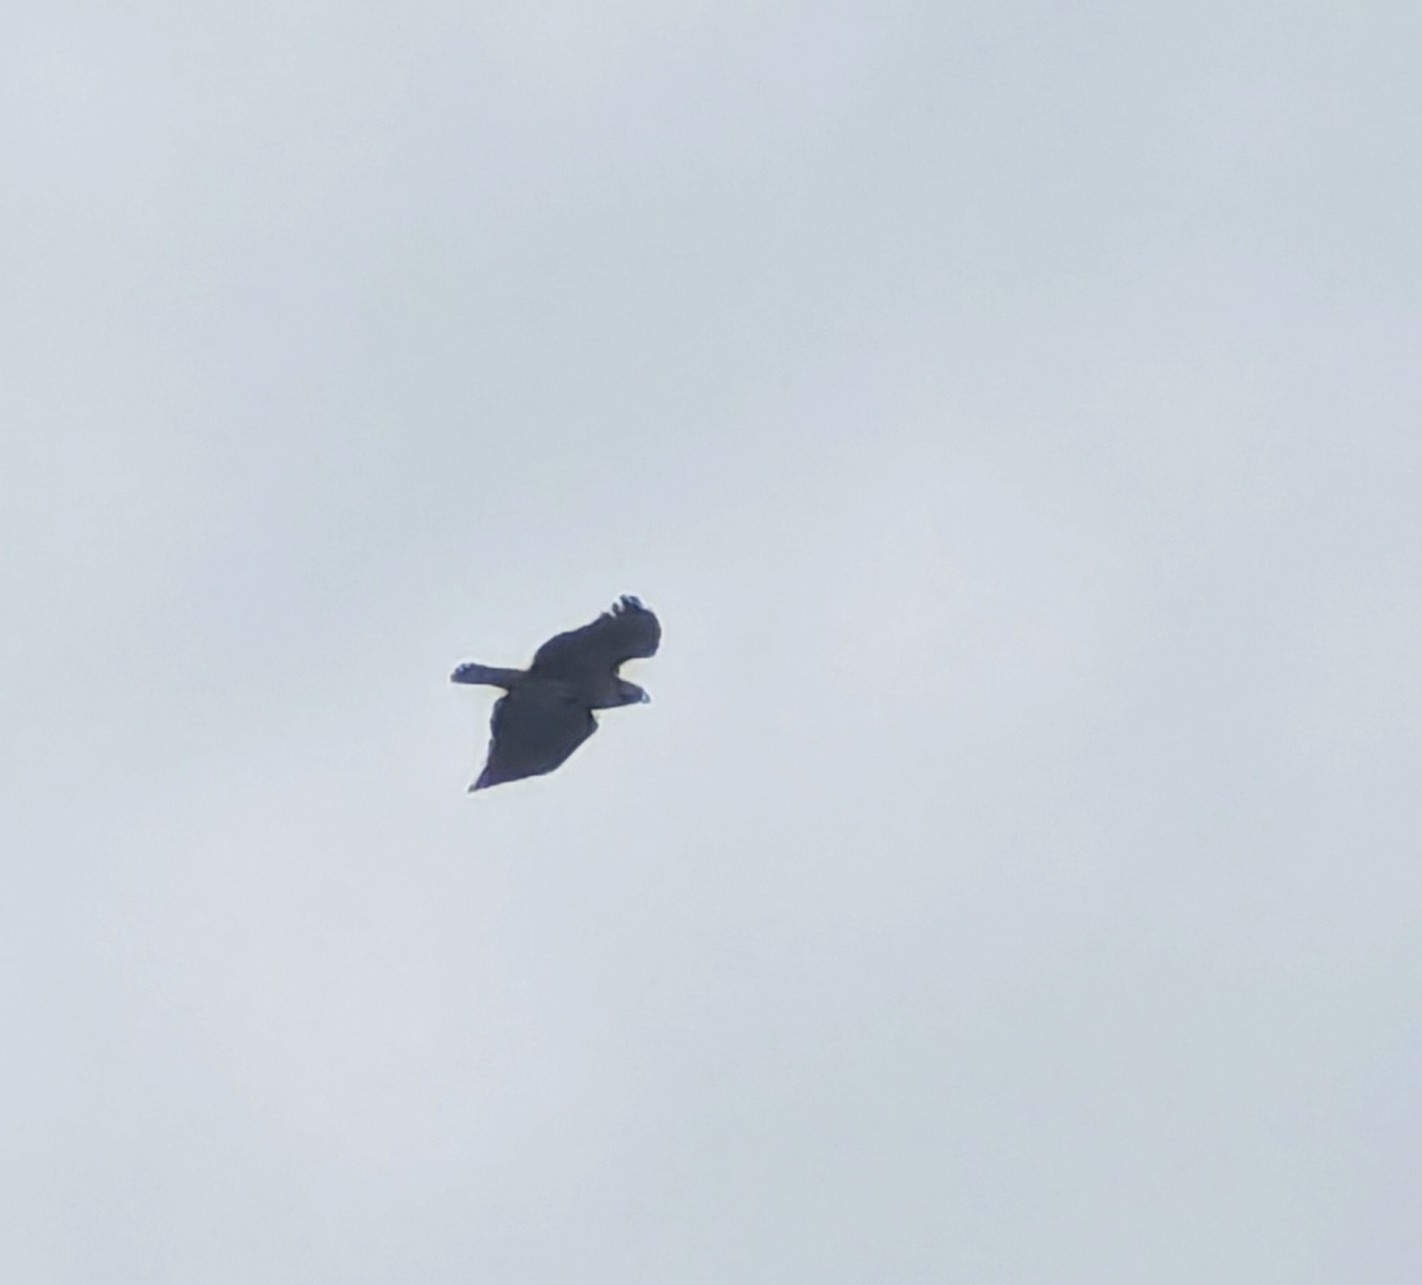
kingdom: Animalia
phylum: Chordata
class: Aves
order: Accipitriformes
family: Accipitridae
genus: Buteo
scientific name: Buteo jamaicensis
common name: Red-tailed hawk
